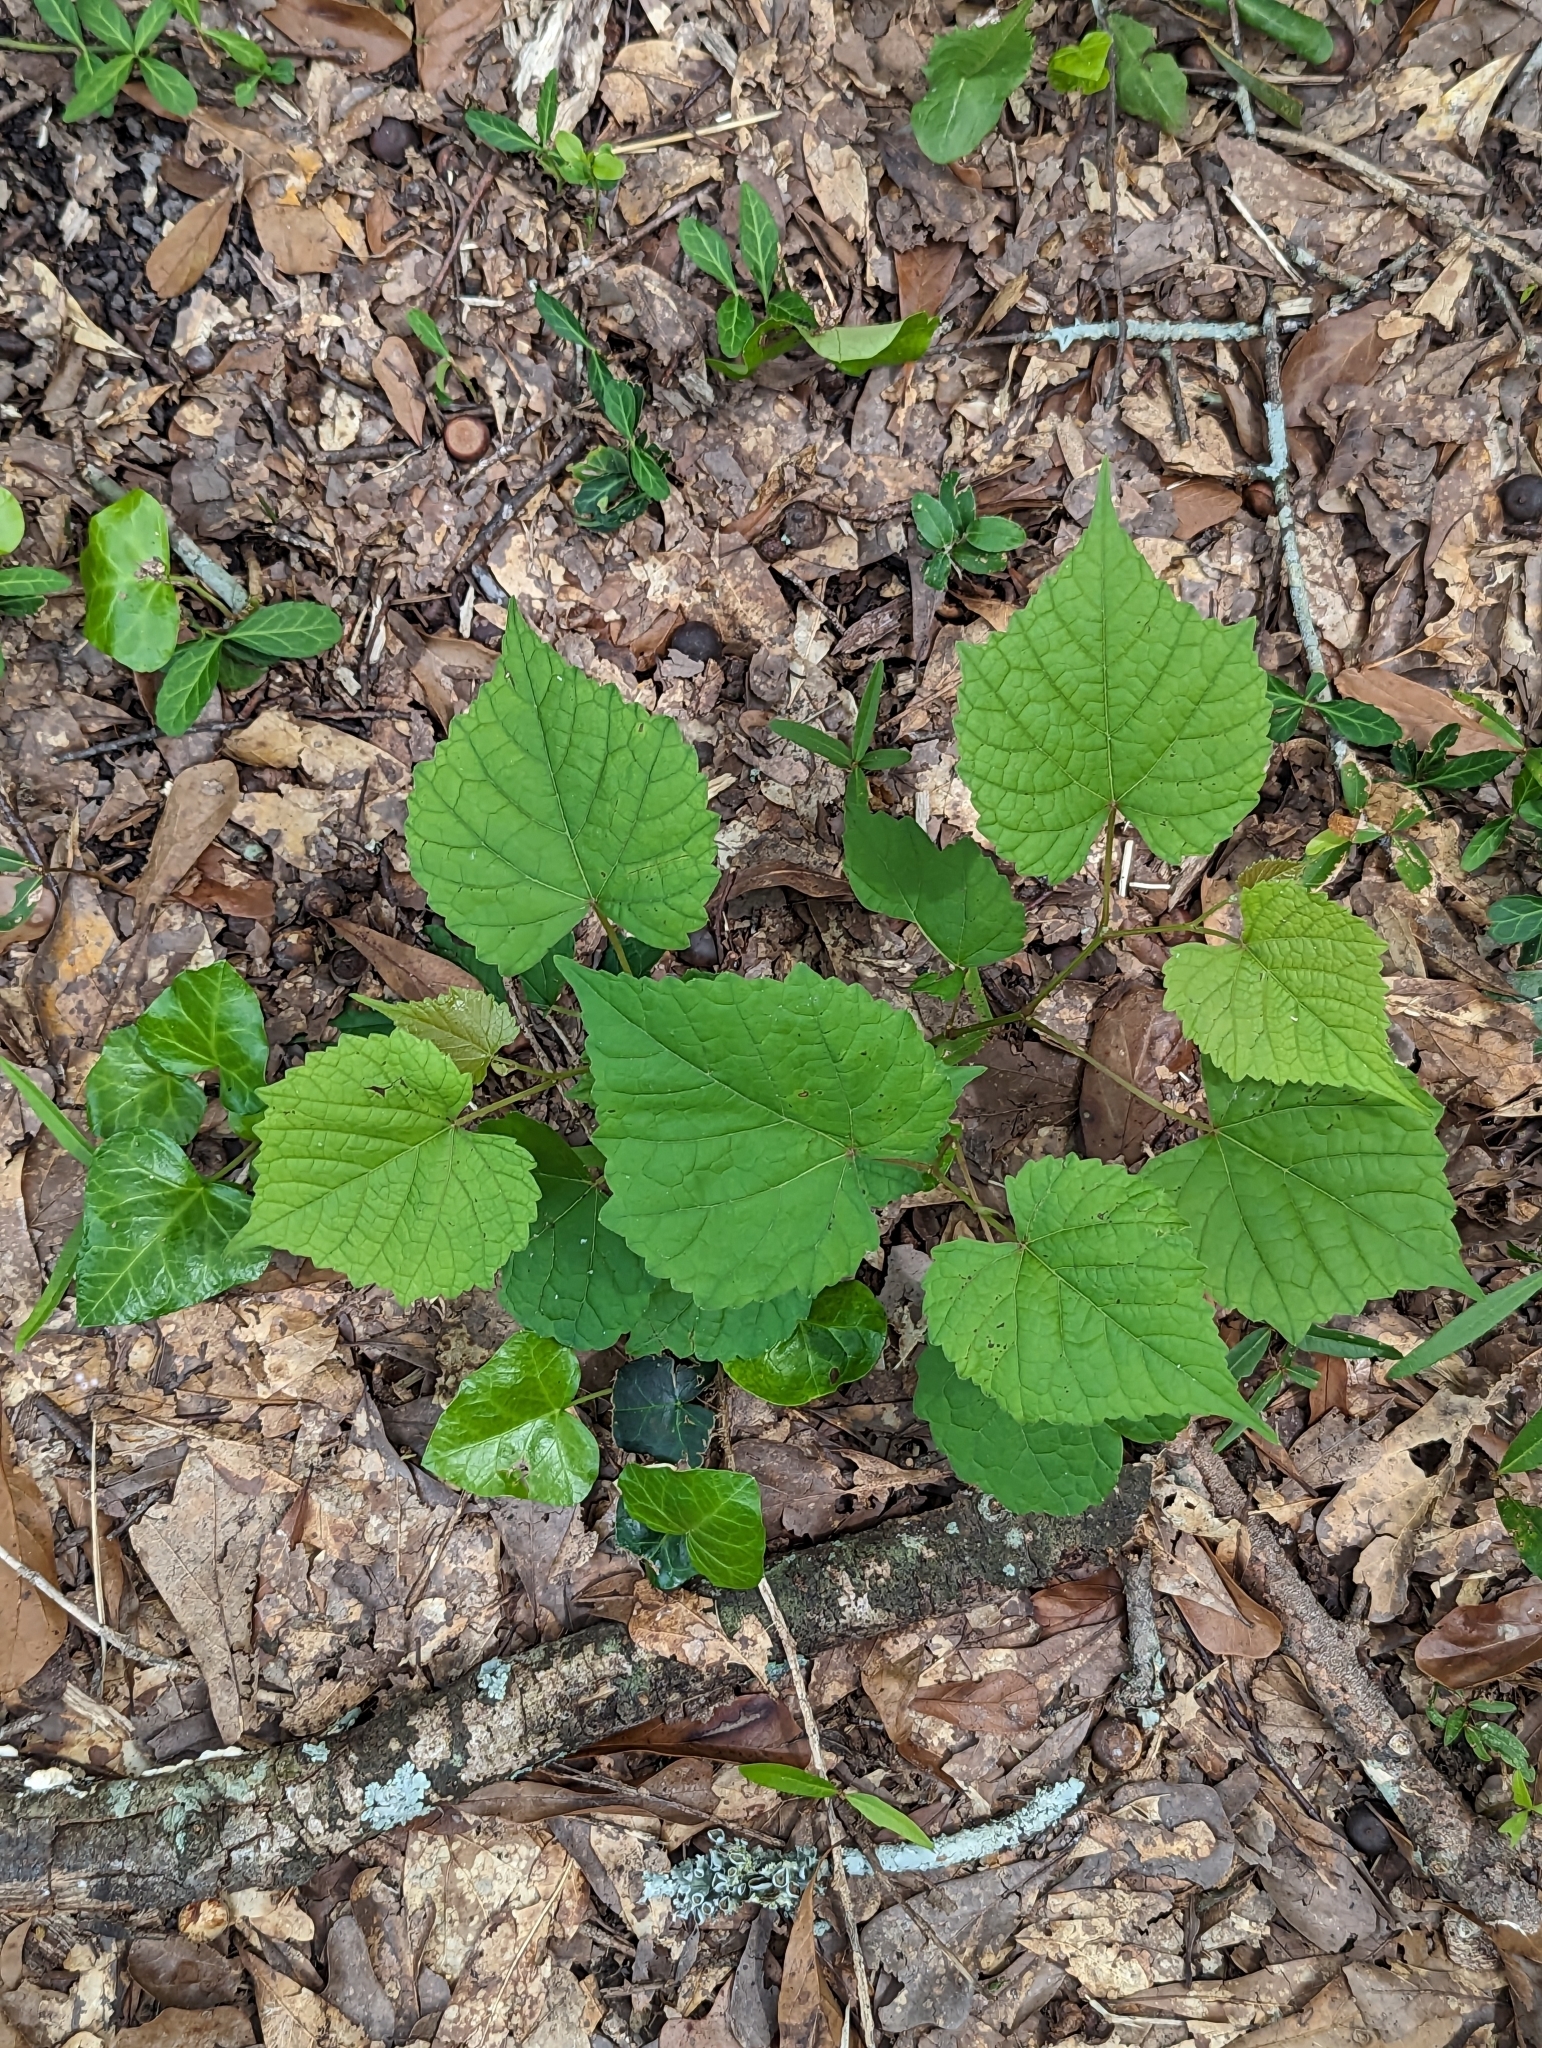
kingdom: Plantae
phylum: Tracheophyta
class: Magnoliopsida
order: Rosales
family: Moraceae
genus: Fatoua
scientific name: Fatoua villosa
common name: Hairy crabweed
